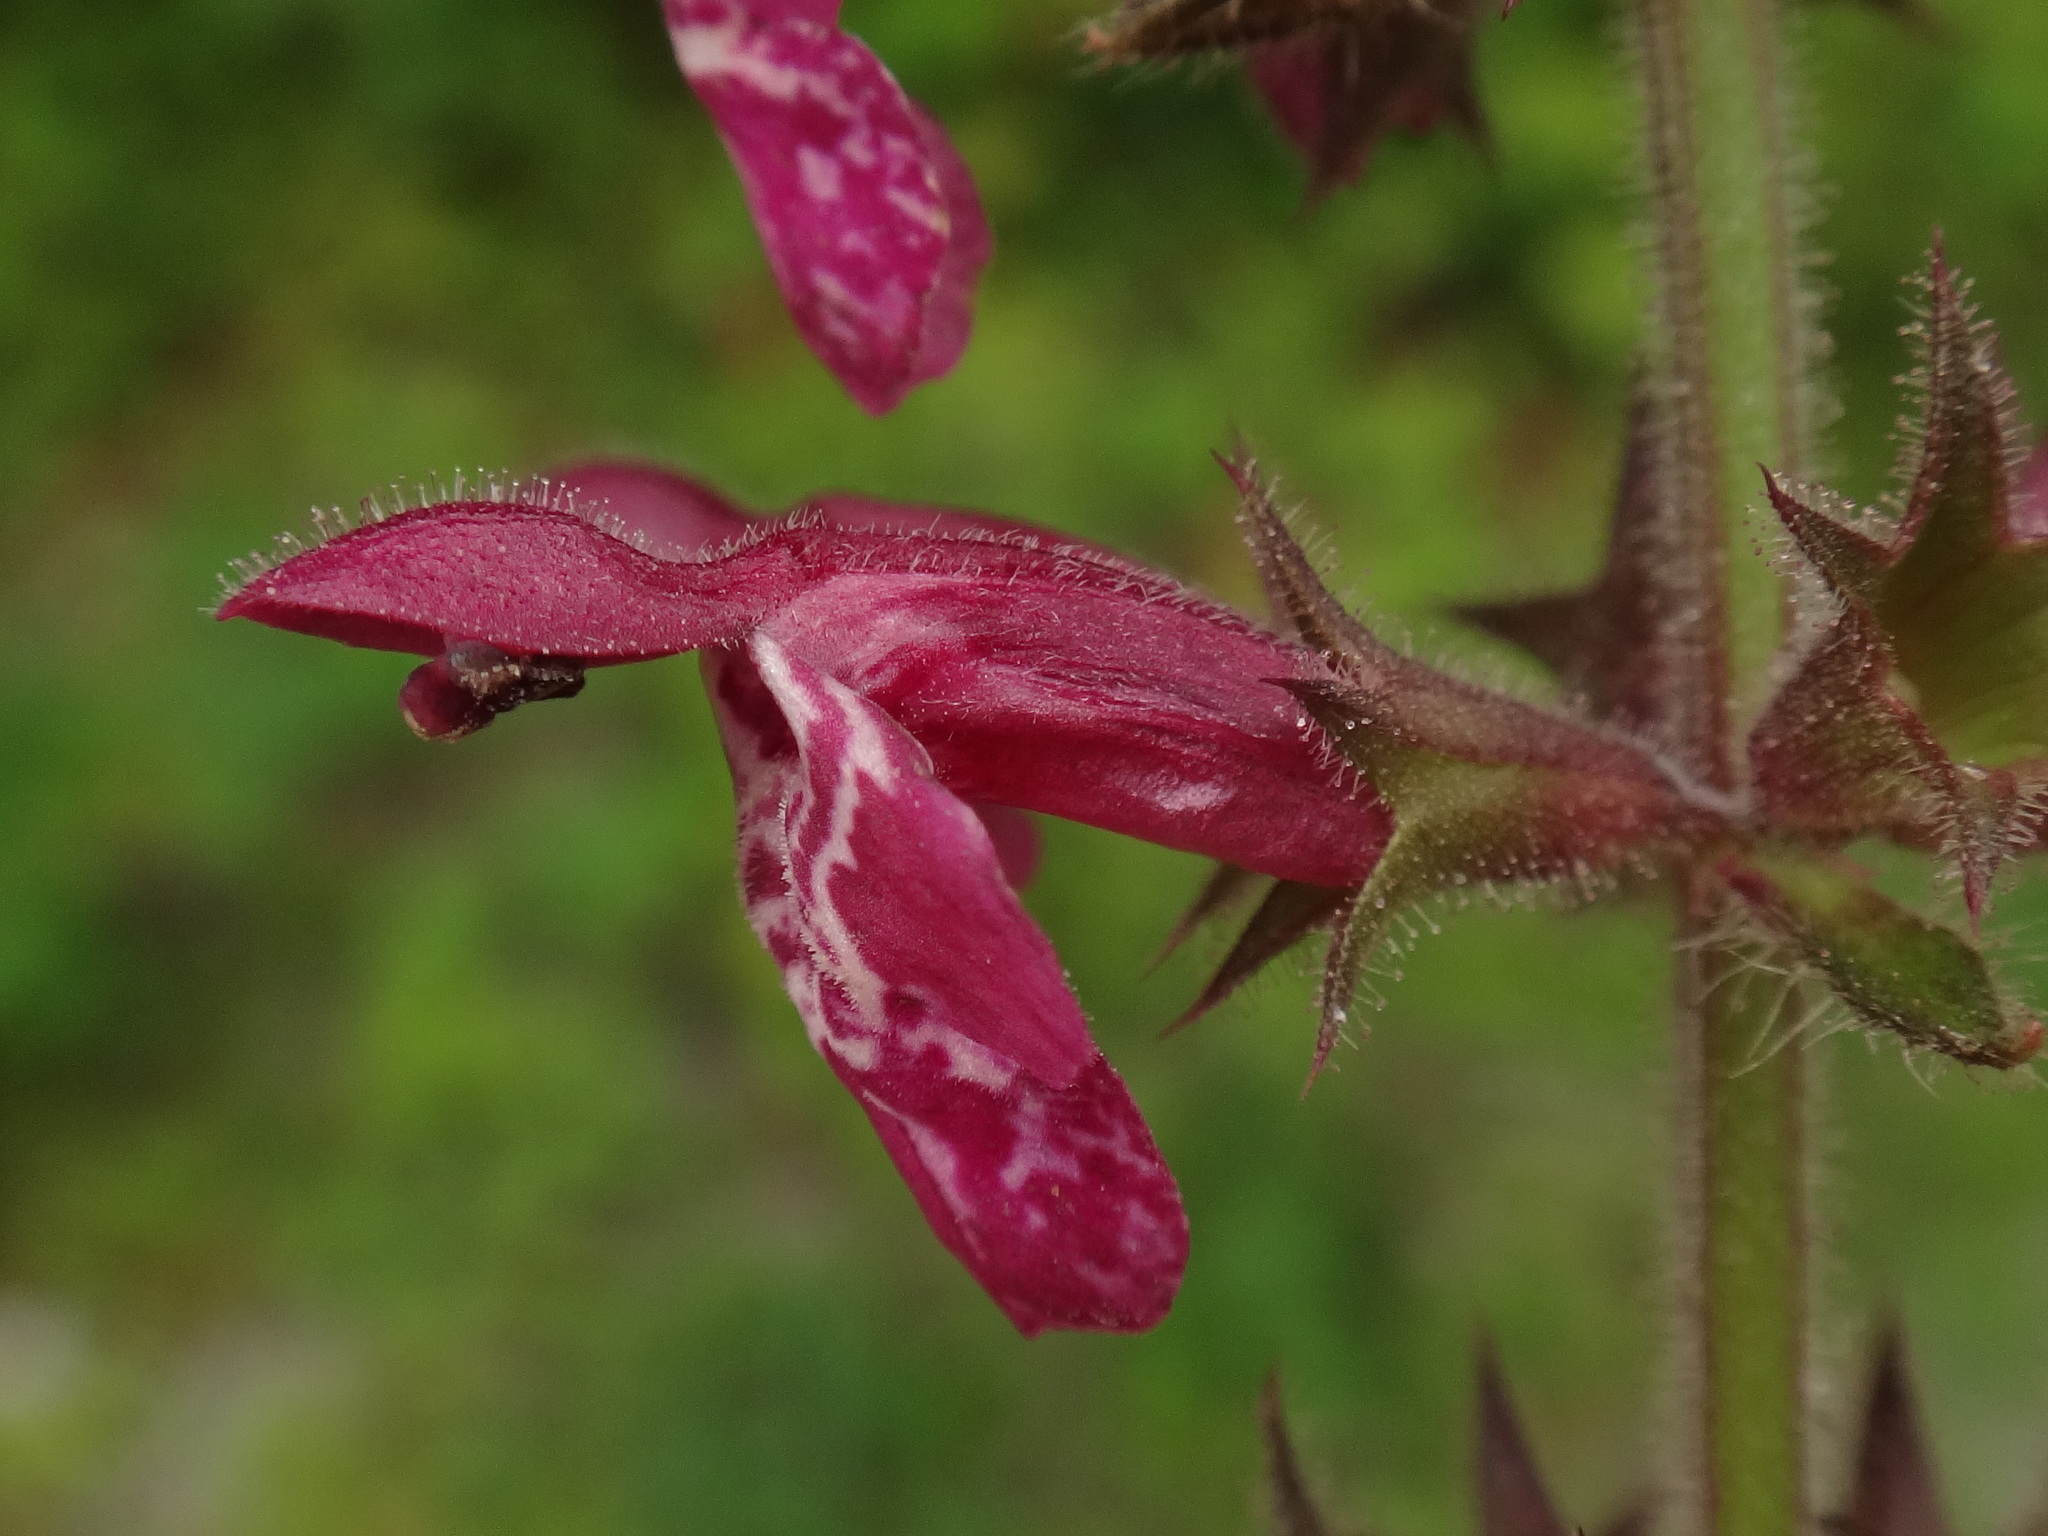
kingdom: Plantae
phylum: Tracheophyta
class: Magnoliopsida
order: Lamiales
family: Lamiaceae
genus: Stachys
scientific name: Stachys sylvatica
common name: Hedge woundwort
